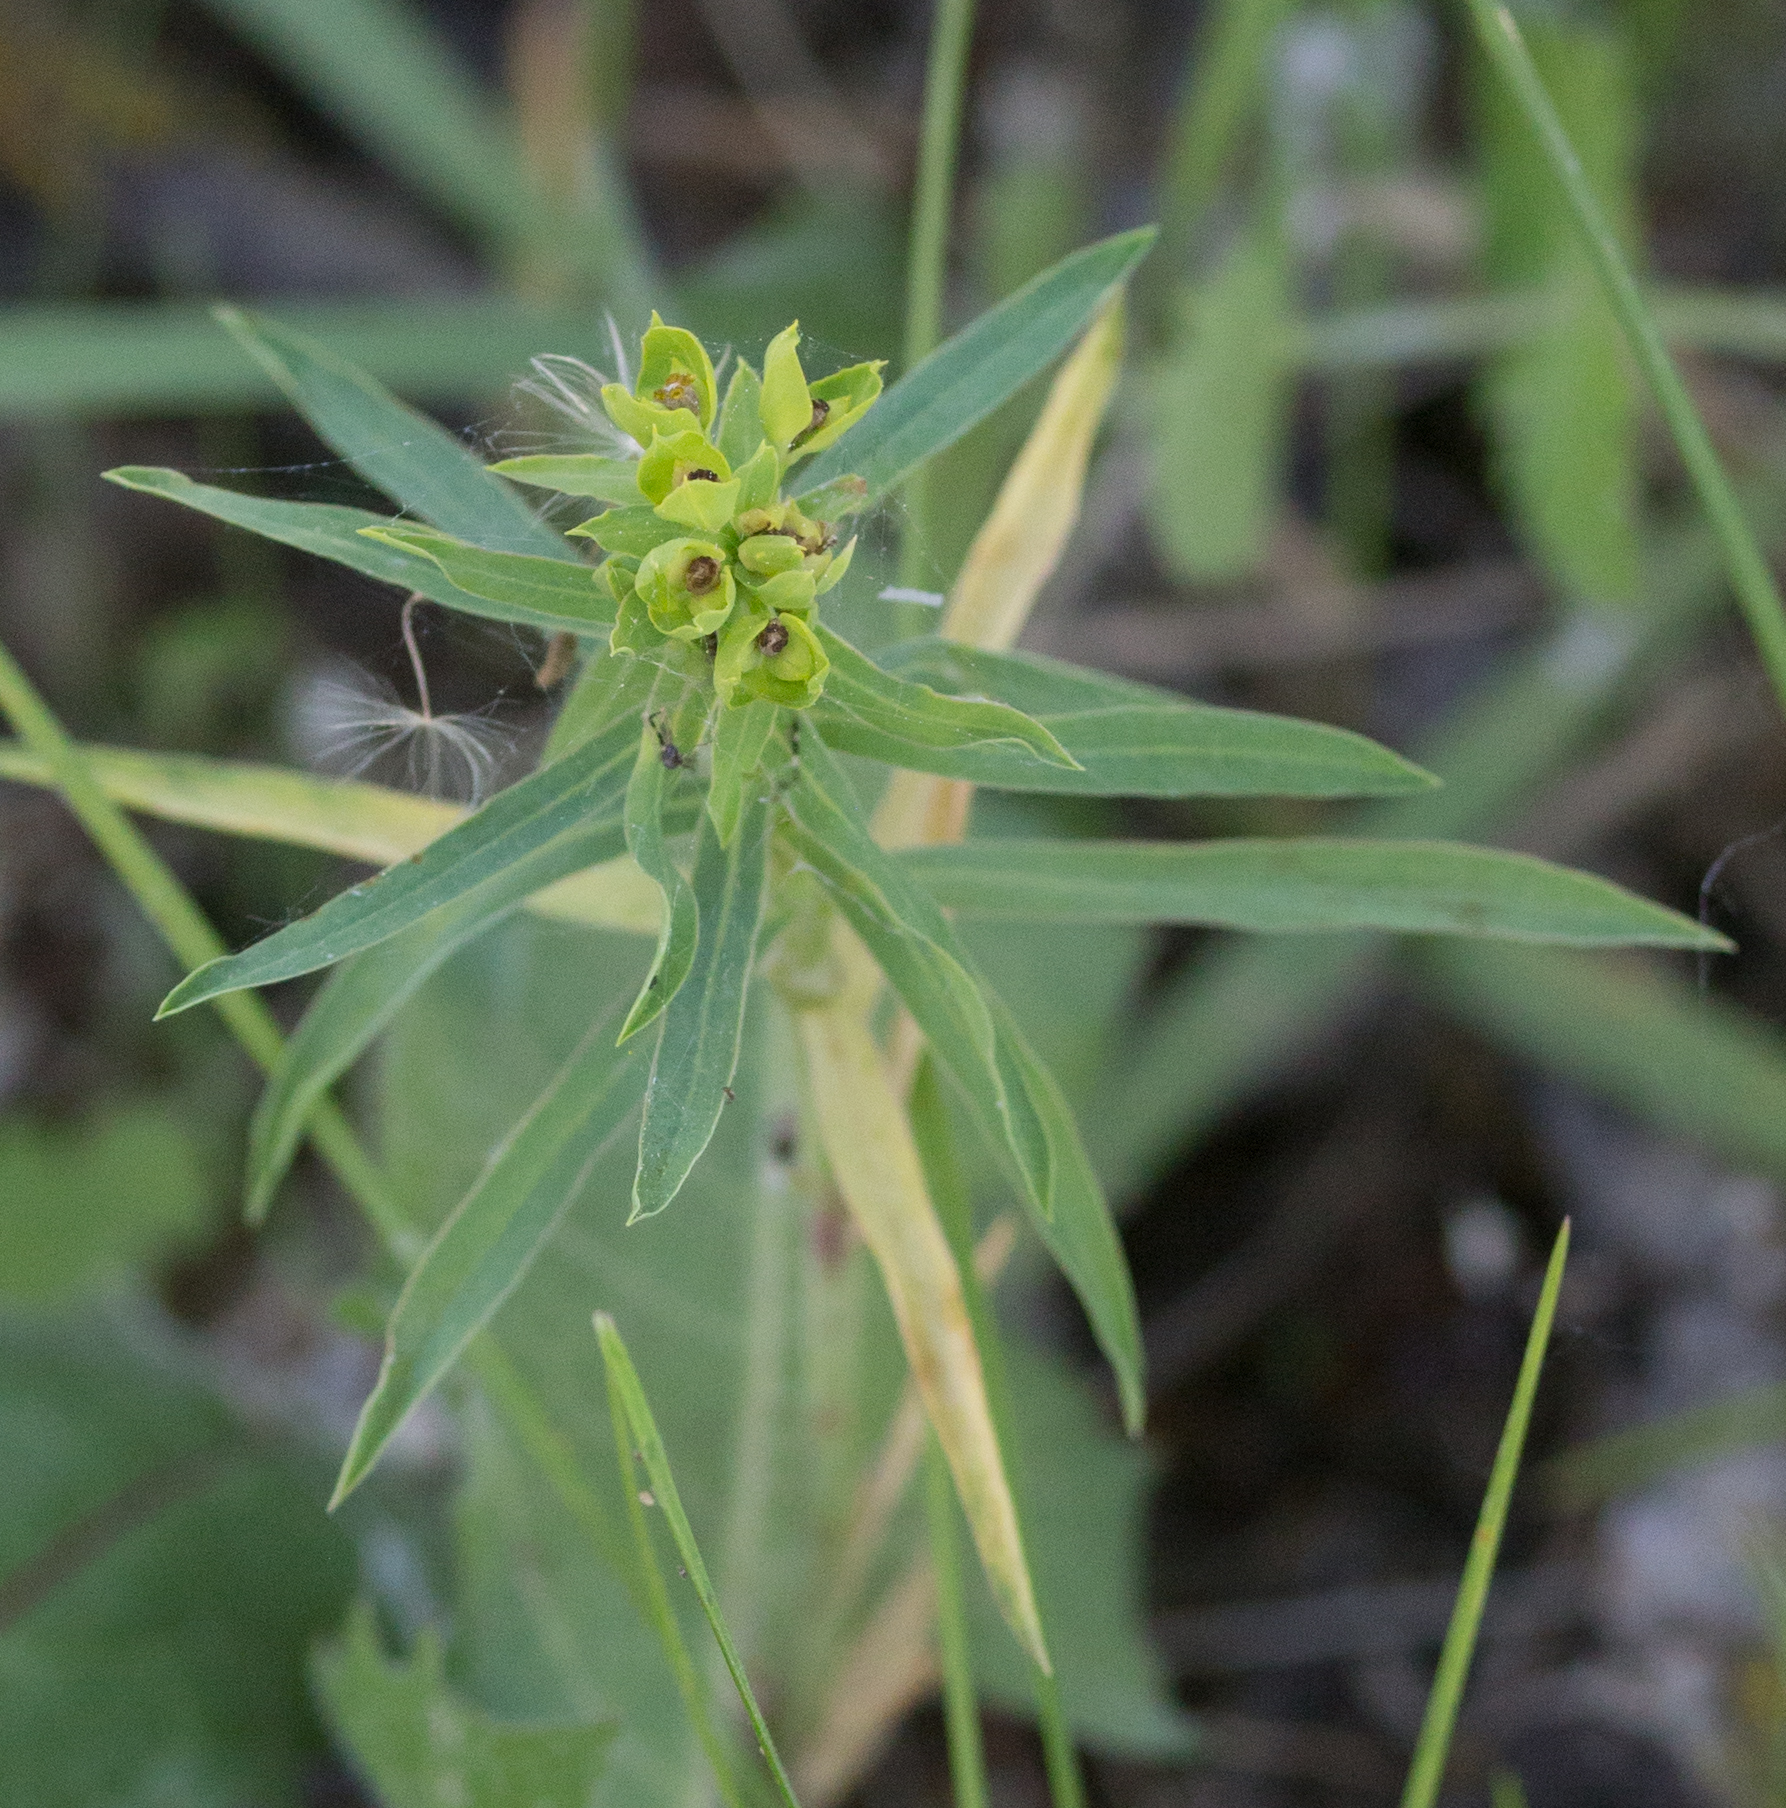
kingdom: Plantae
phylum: Tracheophyta
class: Magnoliopsida
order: Malpighiales
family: Euphorbiaceae
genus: Euphorbia
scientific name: Euphorbia virgata
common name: Leafy spurge
